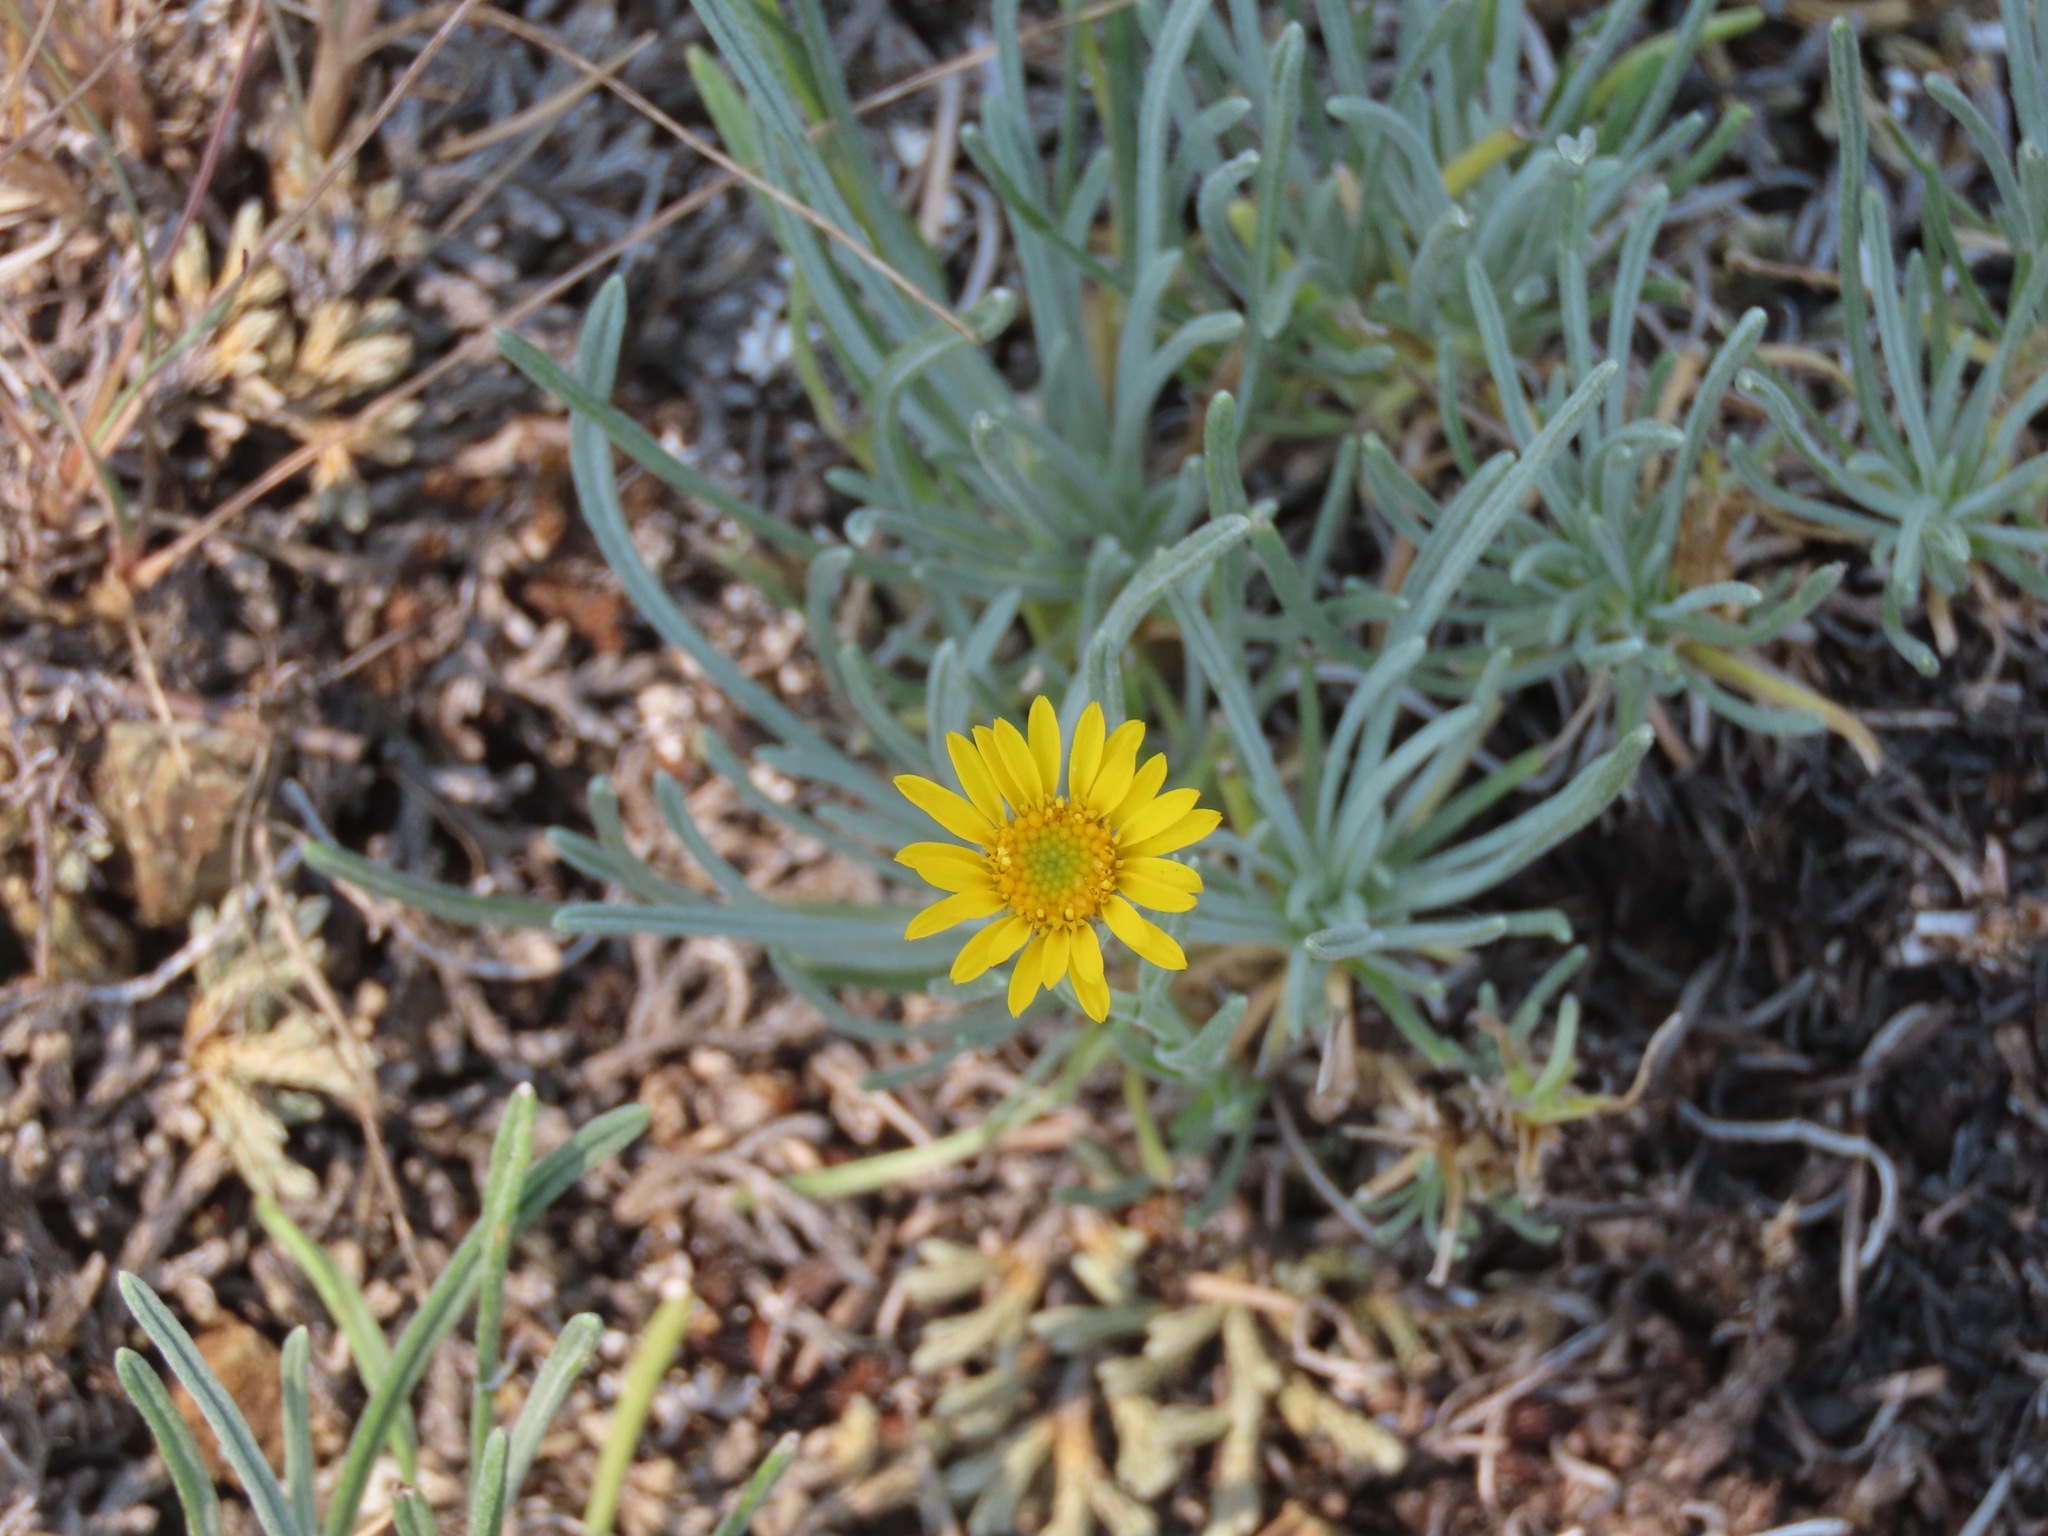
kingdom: Plantae
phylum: Tracheophyta
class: Magnoliopsida
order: Asterales
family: Asteraceae
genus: Erigeron
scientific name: Erigeron linearis
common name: Desert yellow fleabane
